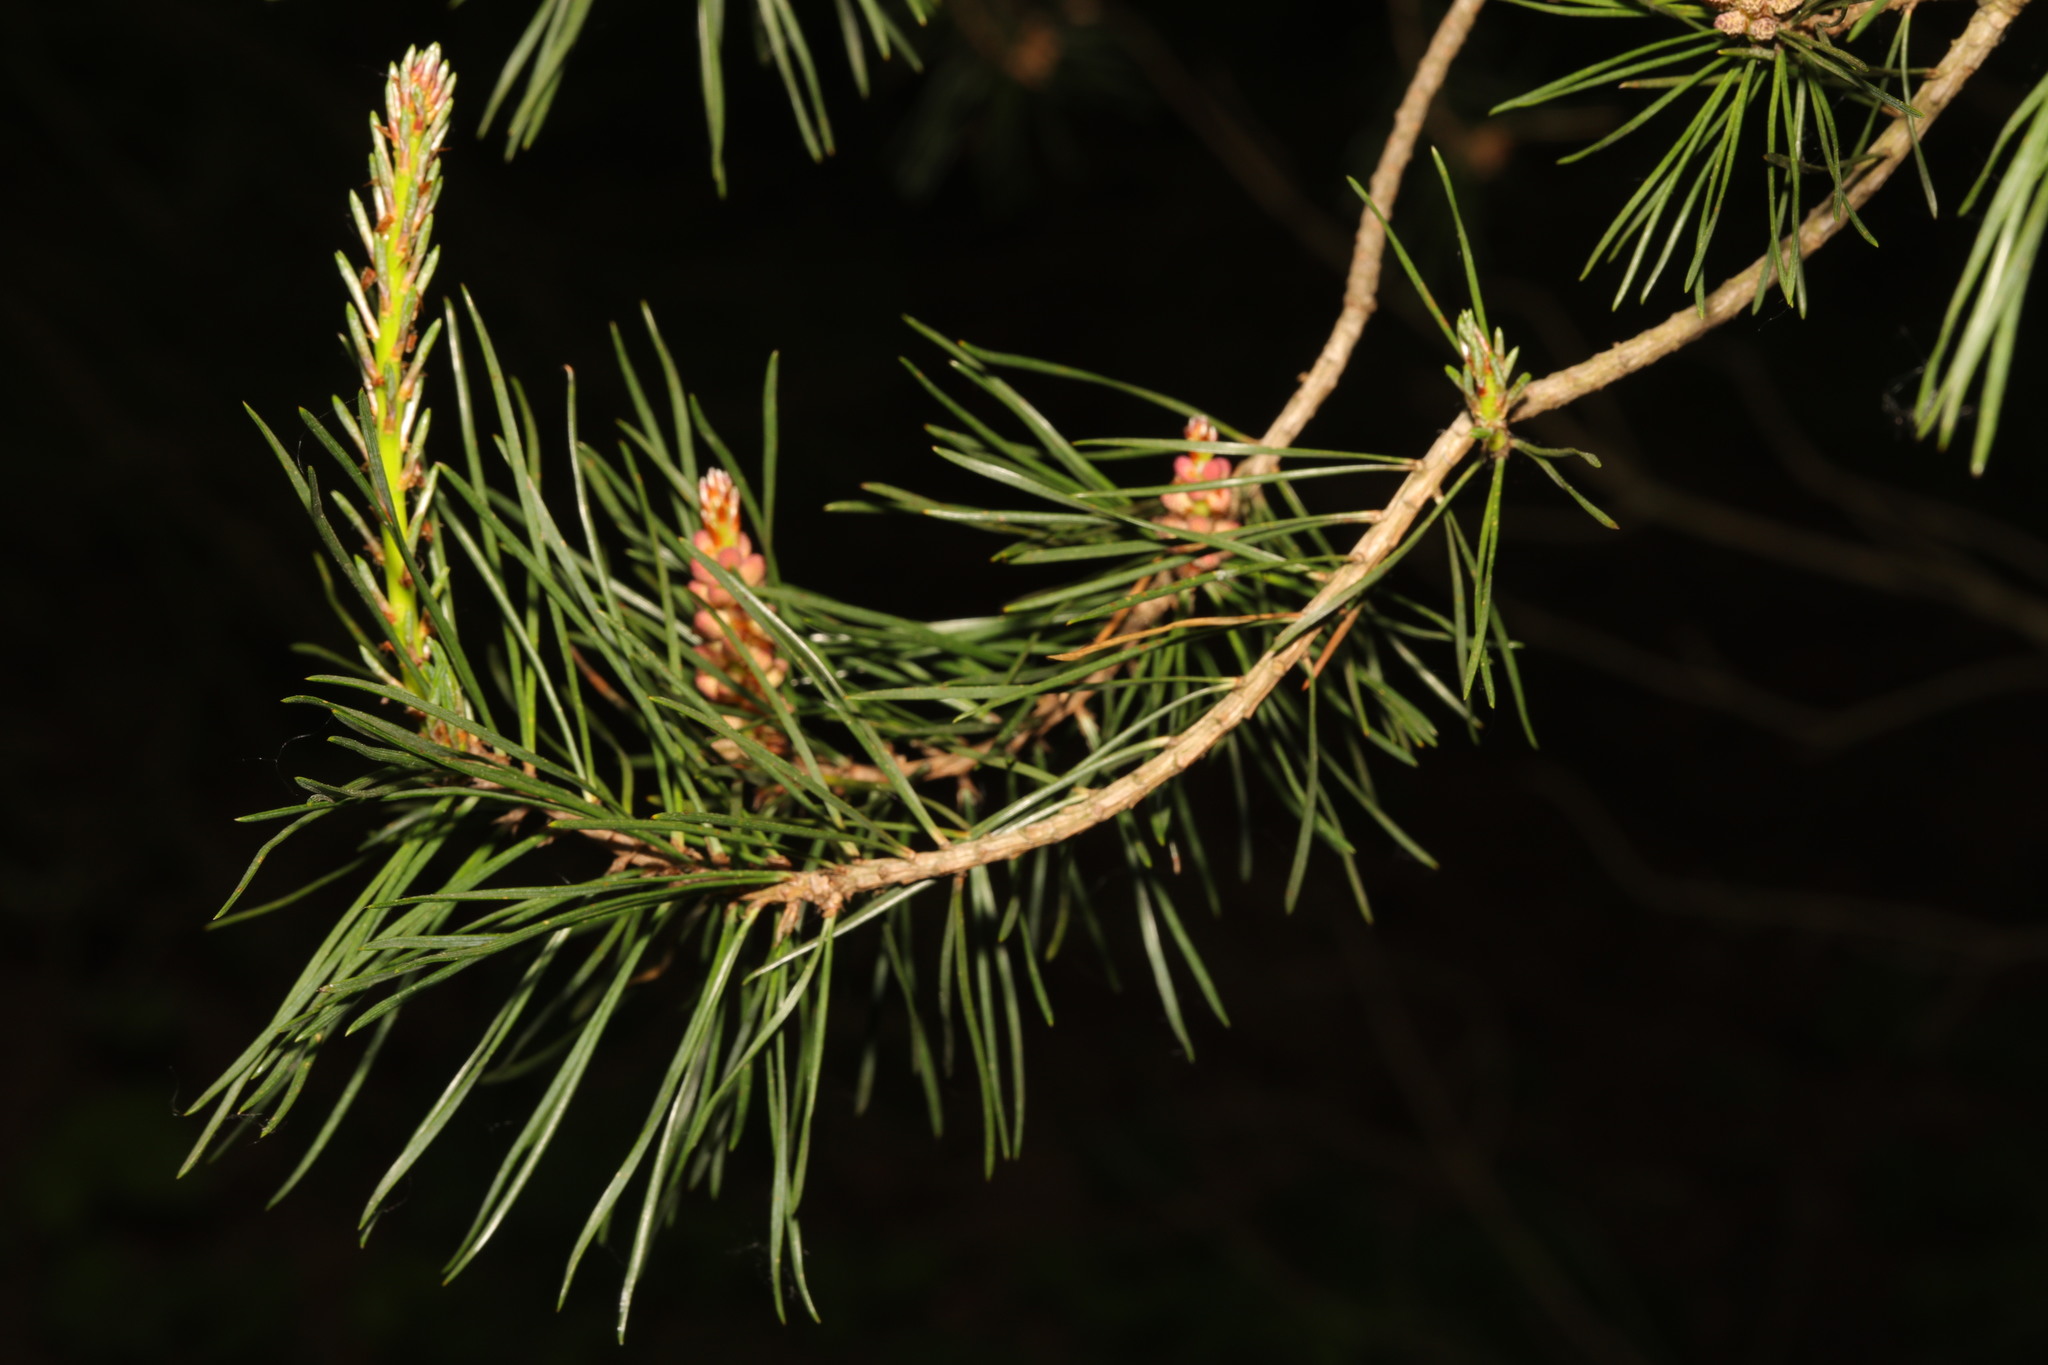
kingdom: Plantae
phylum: Tracheophyta
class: Pinopsida
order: Pinales
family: Pinaceae
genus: Pinus
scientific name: Pinus sylvestris
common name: Scots pine
